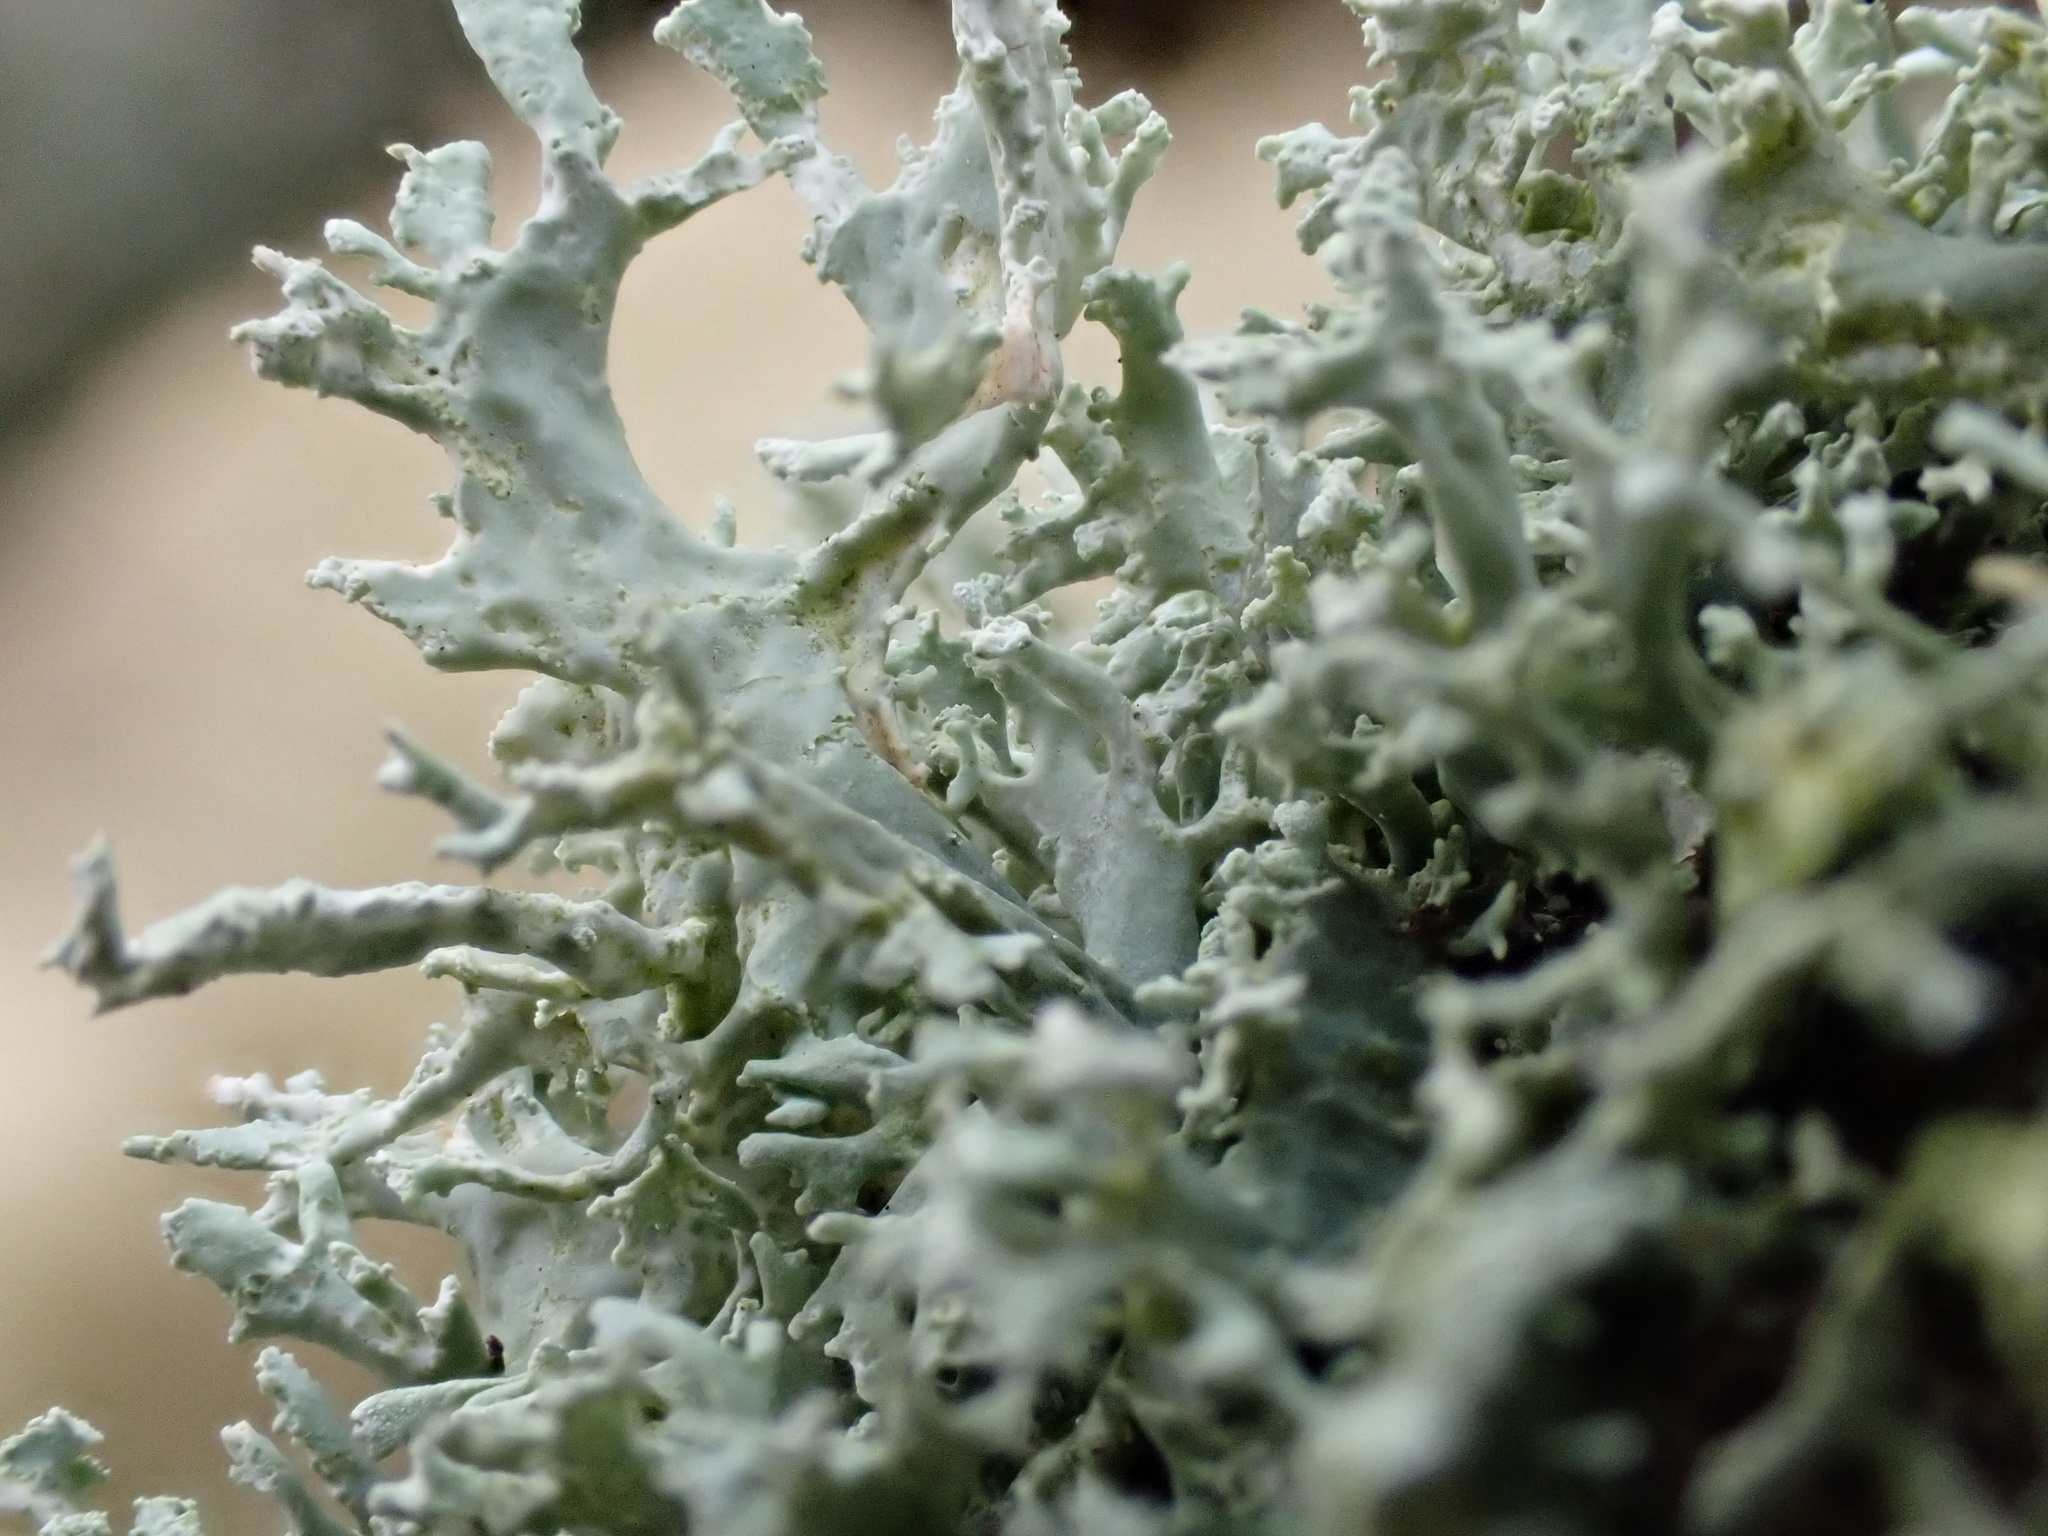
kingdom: Fungi
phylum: Ascomycota
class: Lecanoromycetes
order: Lecanorales
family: Parmeliaceae
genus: Evernia
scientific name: Evernia prunastri
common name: Oak moss
